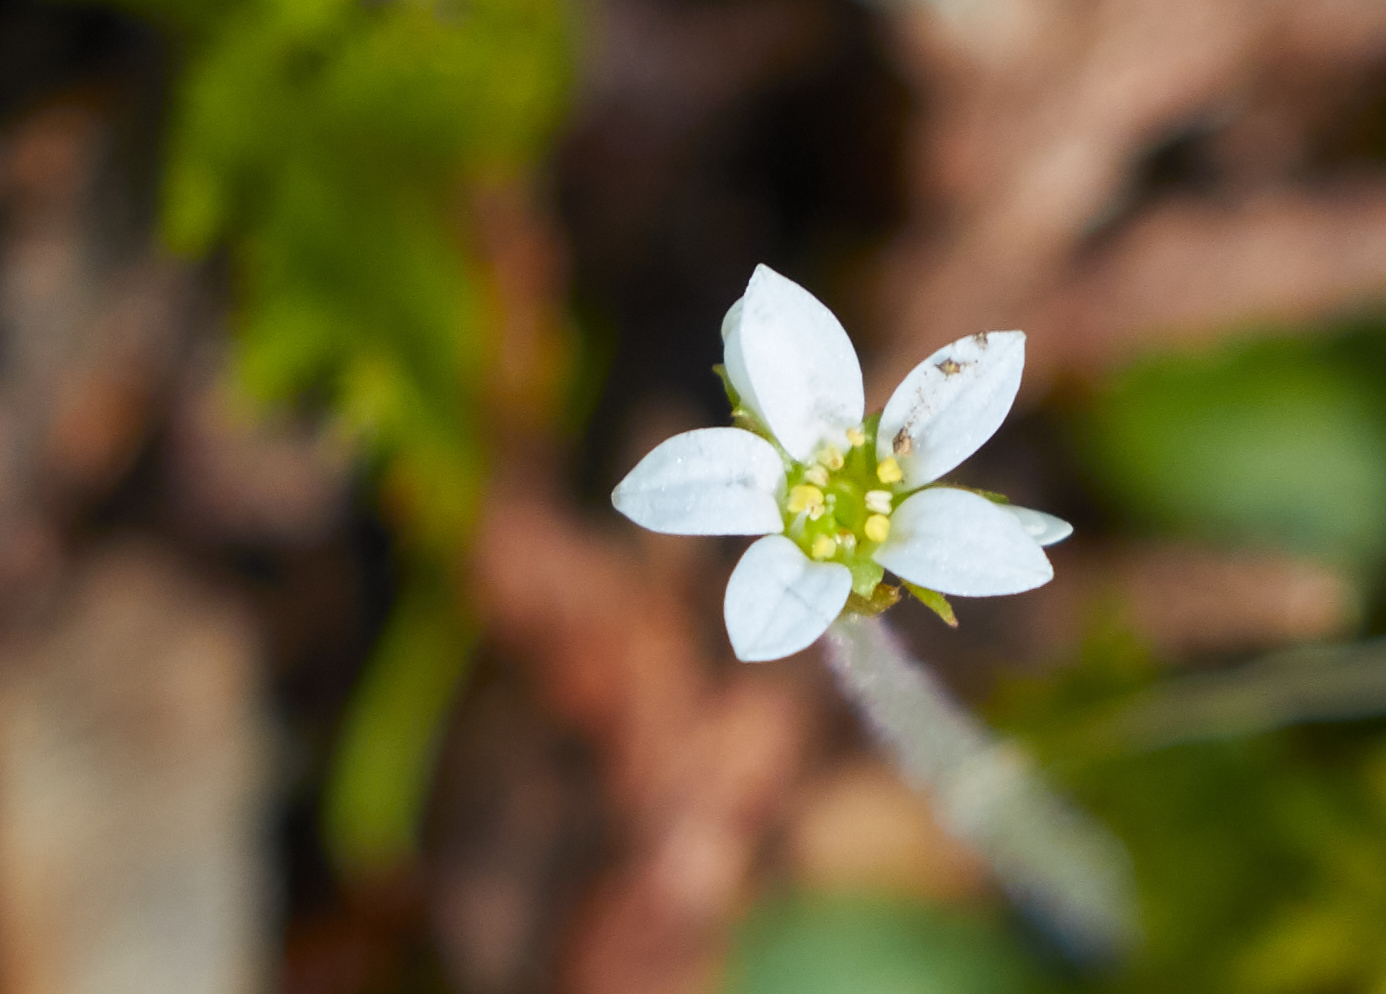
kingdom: Plantae
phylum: Tracheophyta
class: Magnoliopsida
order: Saxifragales
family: Saxifragaceae
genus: Micranthes
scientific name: Micranthes virginiensis
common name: Early saxifrage
